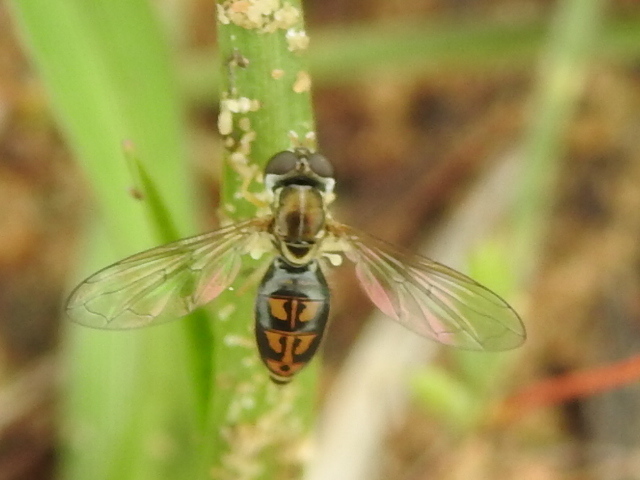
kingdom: Animalia
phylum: Arthropoda
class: Insecta
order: Diptera
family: Syrphidae
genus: Toxomerus
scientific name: Toxomerus marginatus
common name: Syrphid fly
